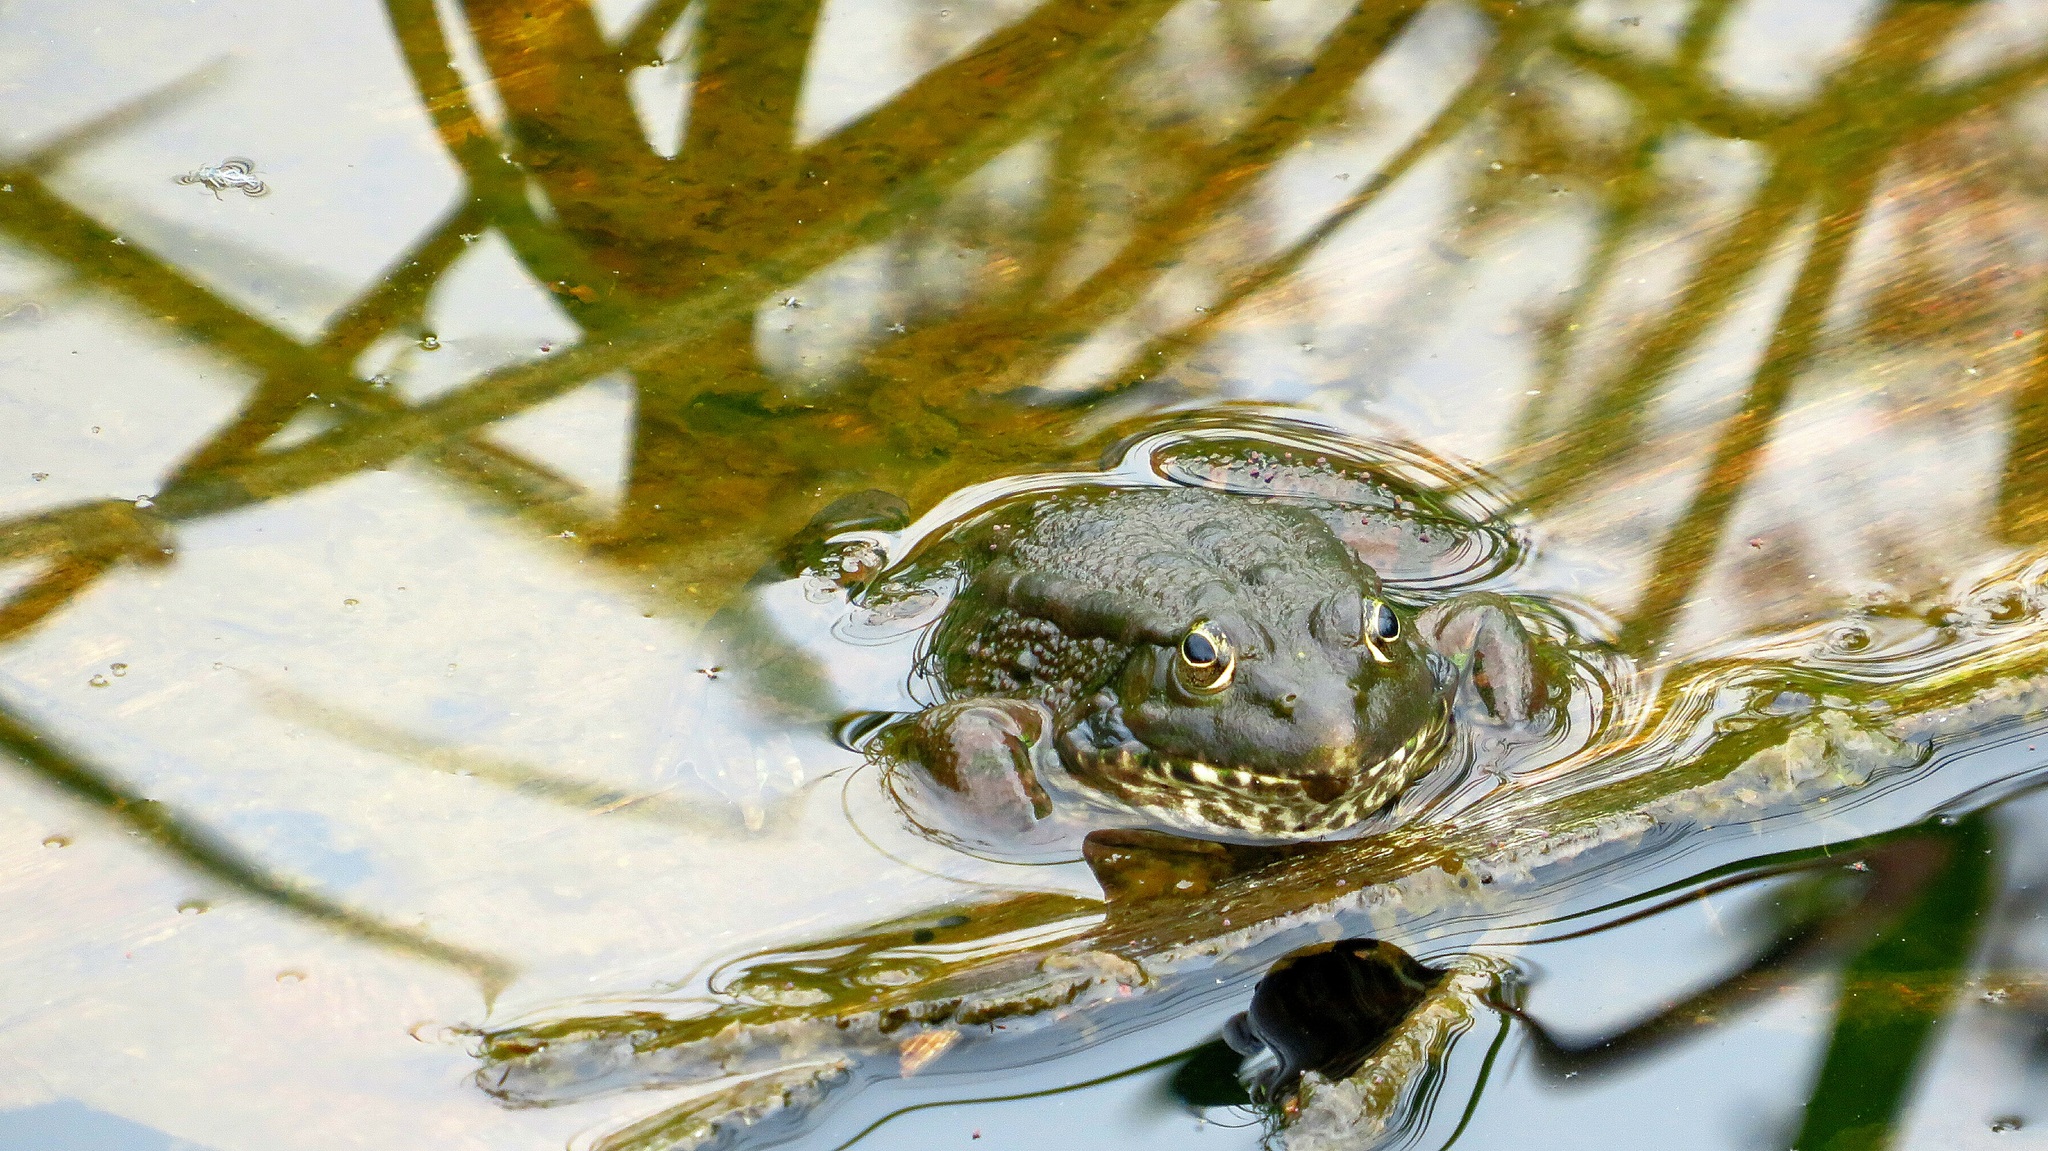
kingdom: Animalia
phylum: Chordata
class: Amphibia
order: Anura
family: Ranidae
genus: Pelophylax
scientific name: Pelophylax ridibundus
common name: Marsh frog
